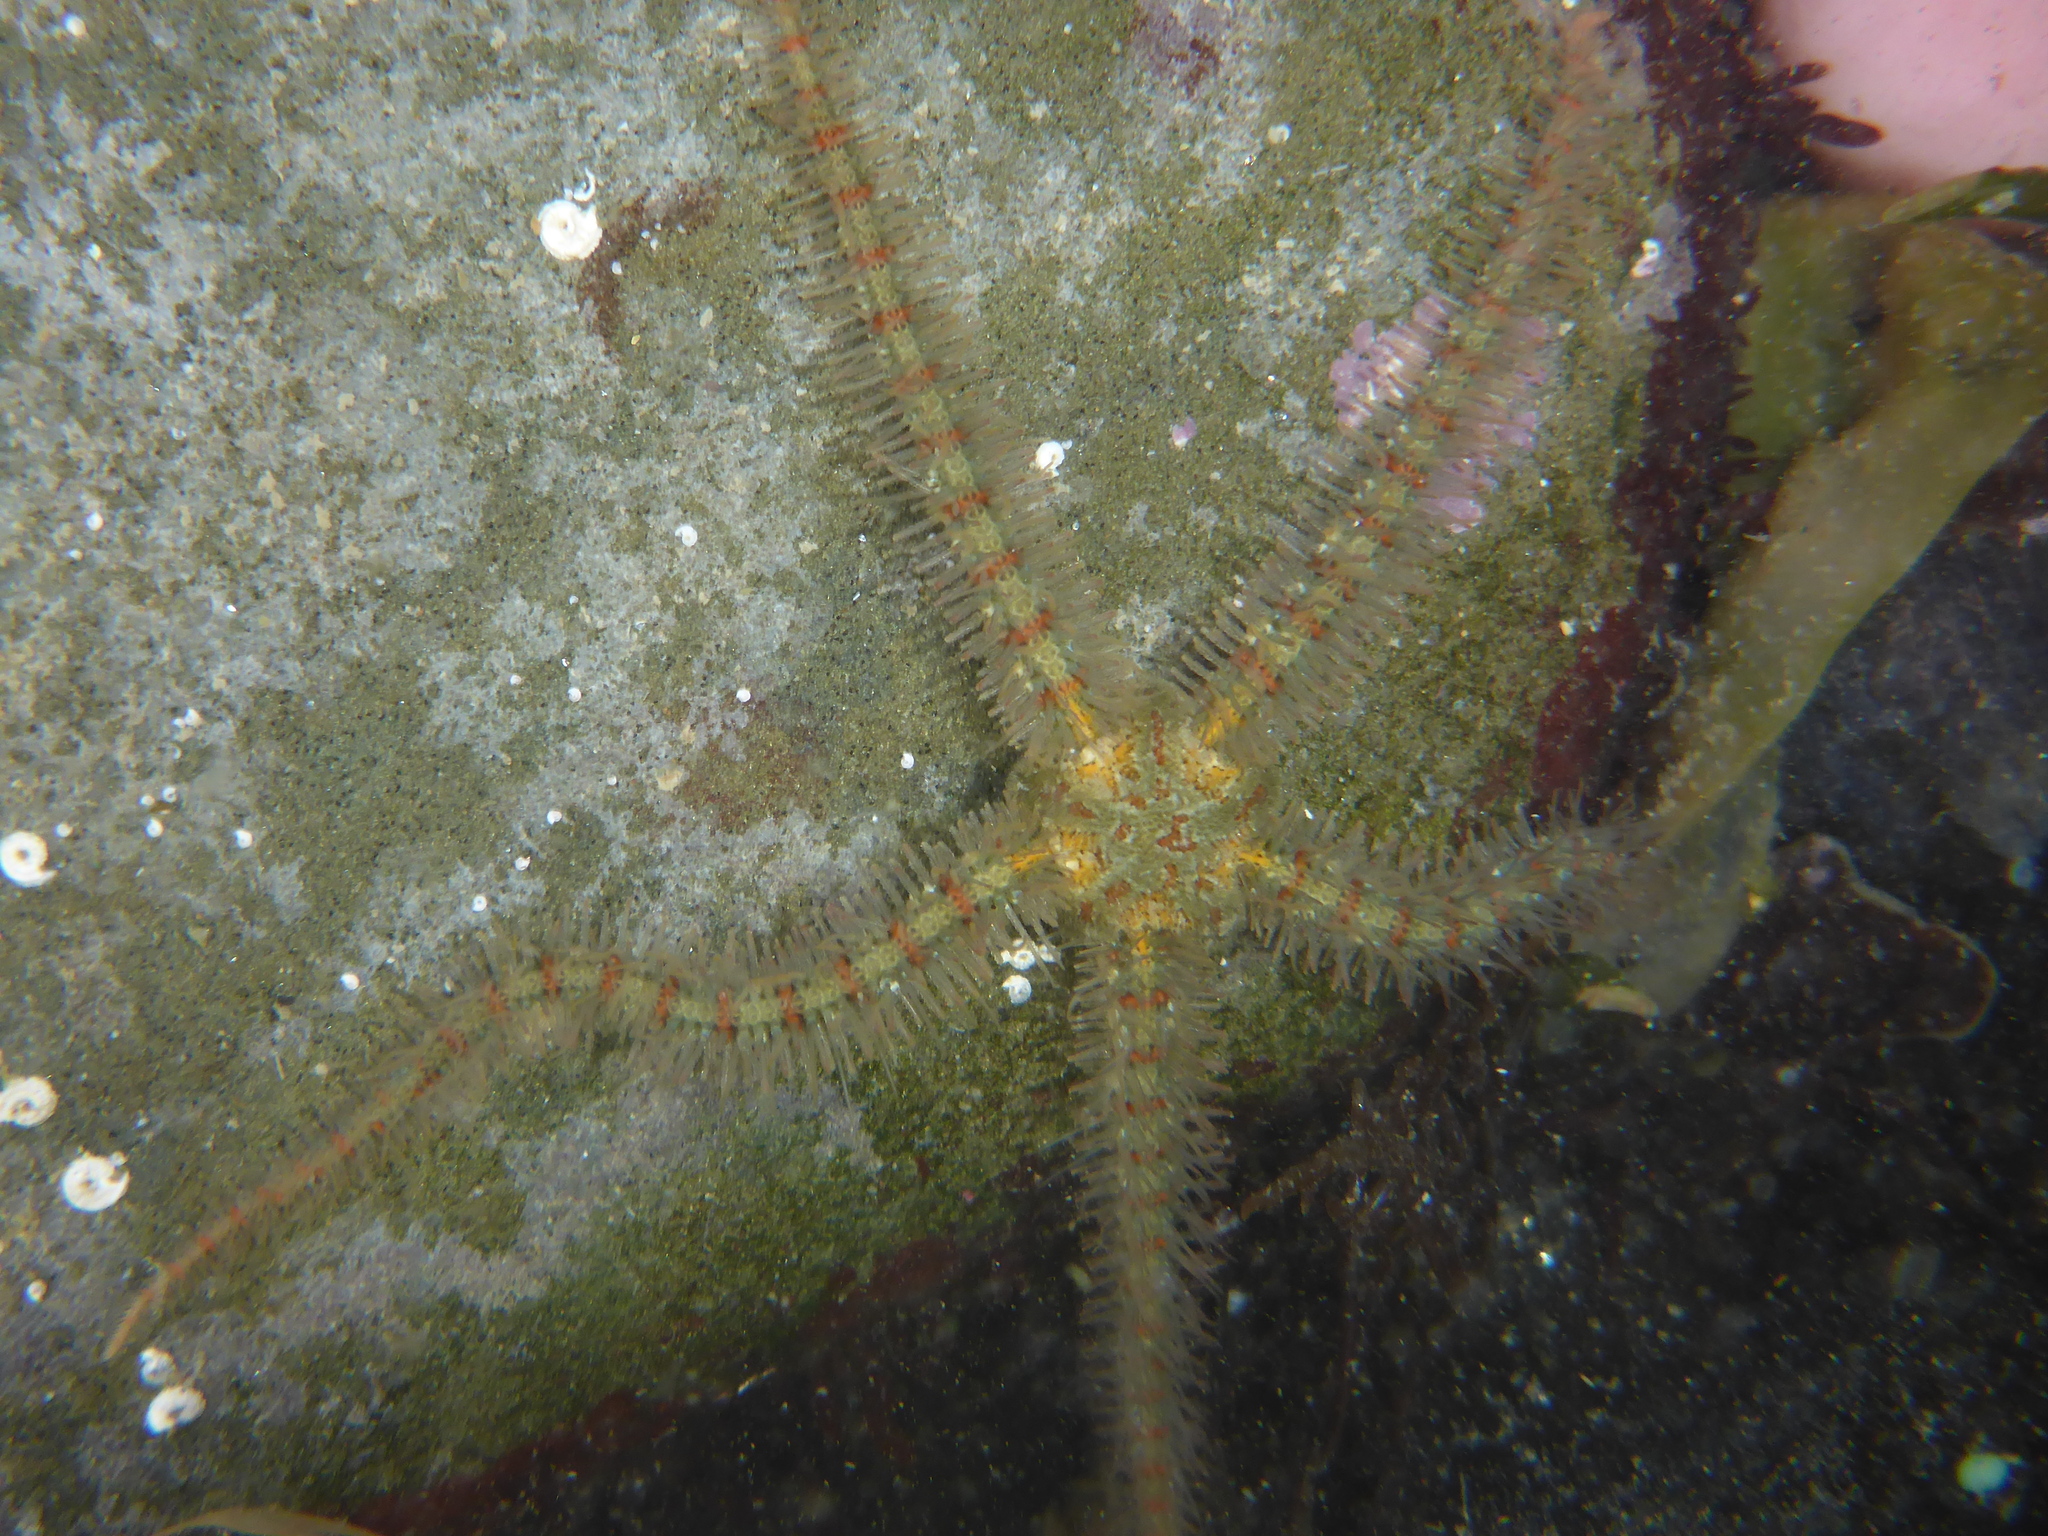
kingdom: Animalia
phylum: Echinodermata
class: Ophiuroidea
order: Amphilepidida
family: Ophiotrichidae
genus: Ophiothrix
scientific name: Ophiothrix spiculata
